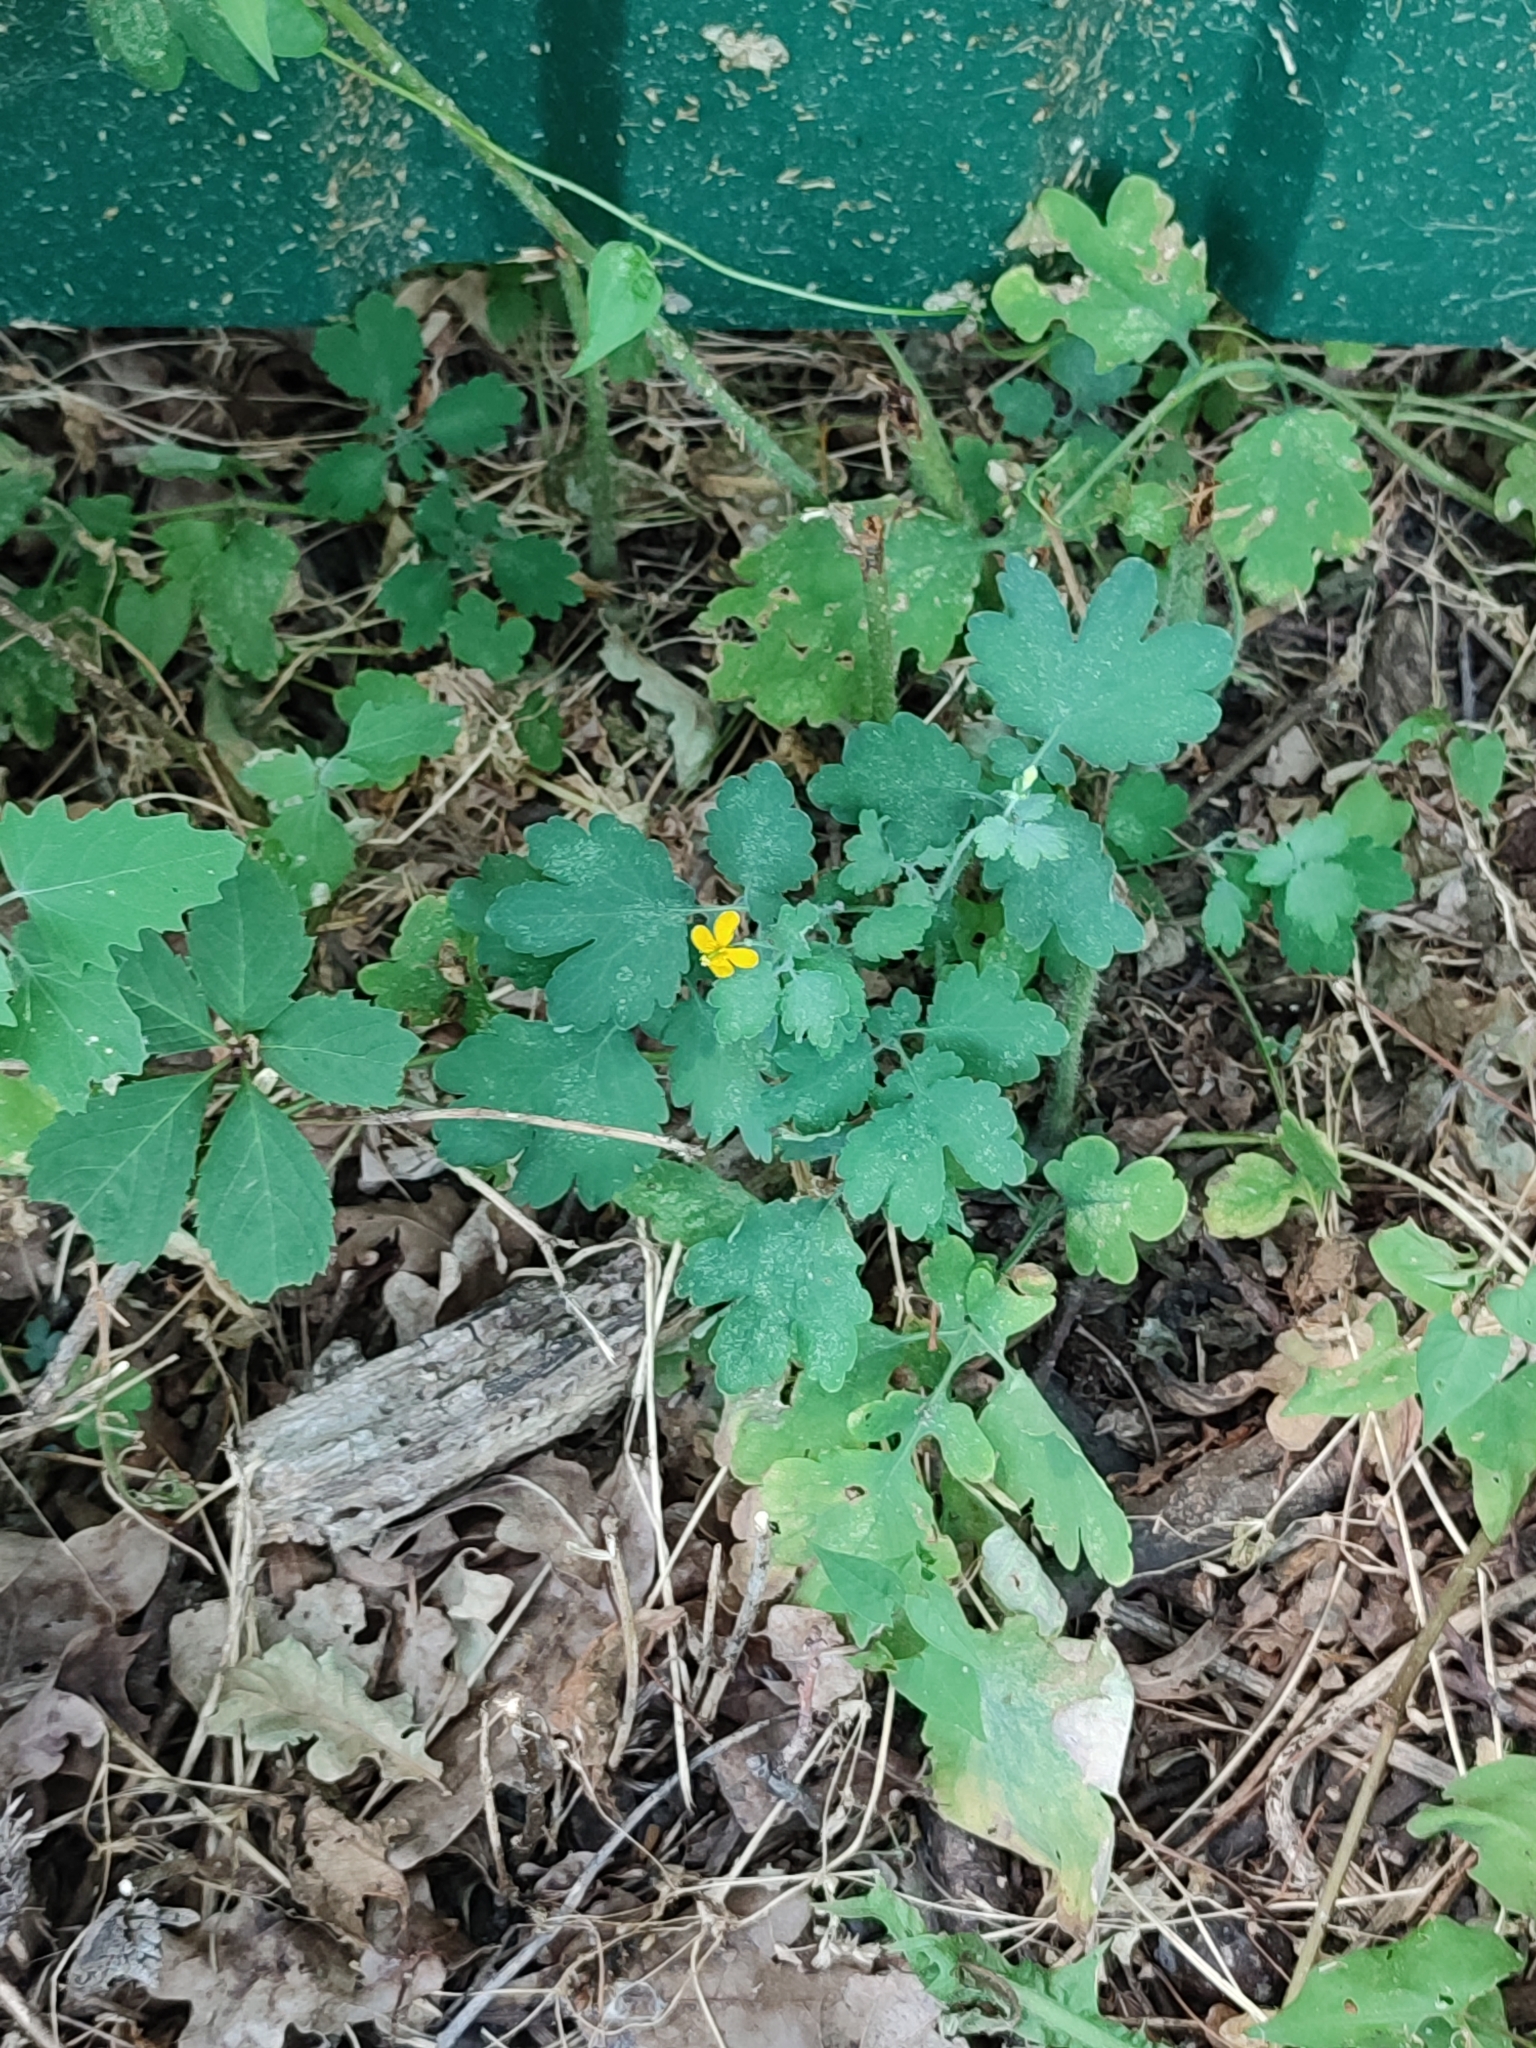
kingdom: Plantae
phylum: Tracheophyta
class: Magnoliopsida
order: Ranunculales
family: Papaveraceae
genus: Chelidonium
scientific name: Chelidonium majus
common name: Greater celandine
